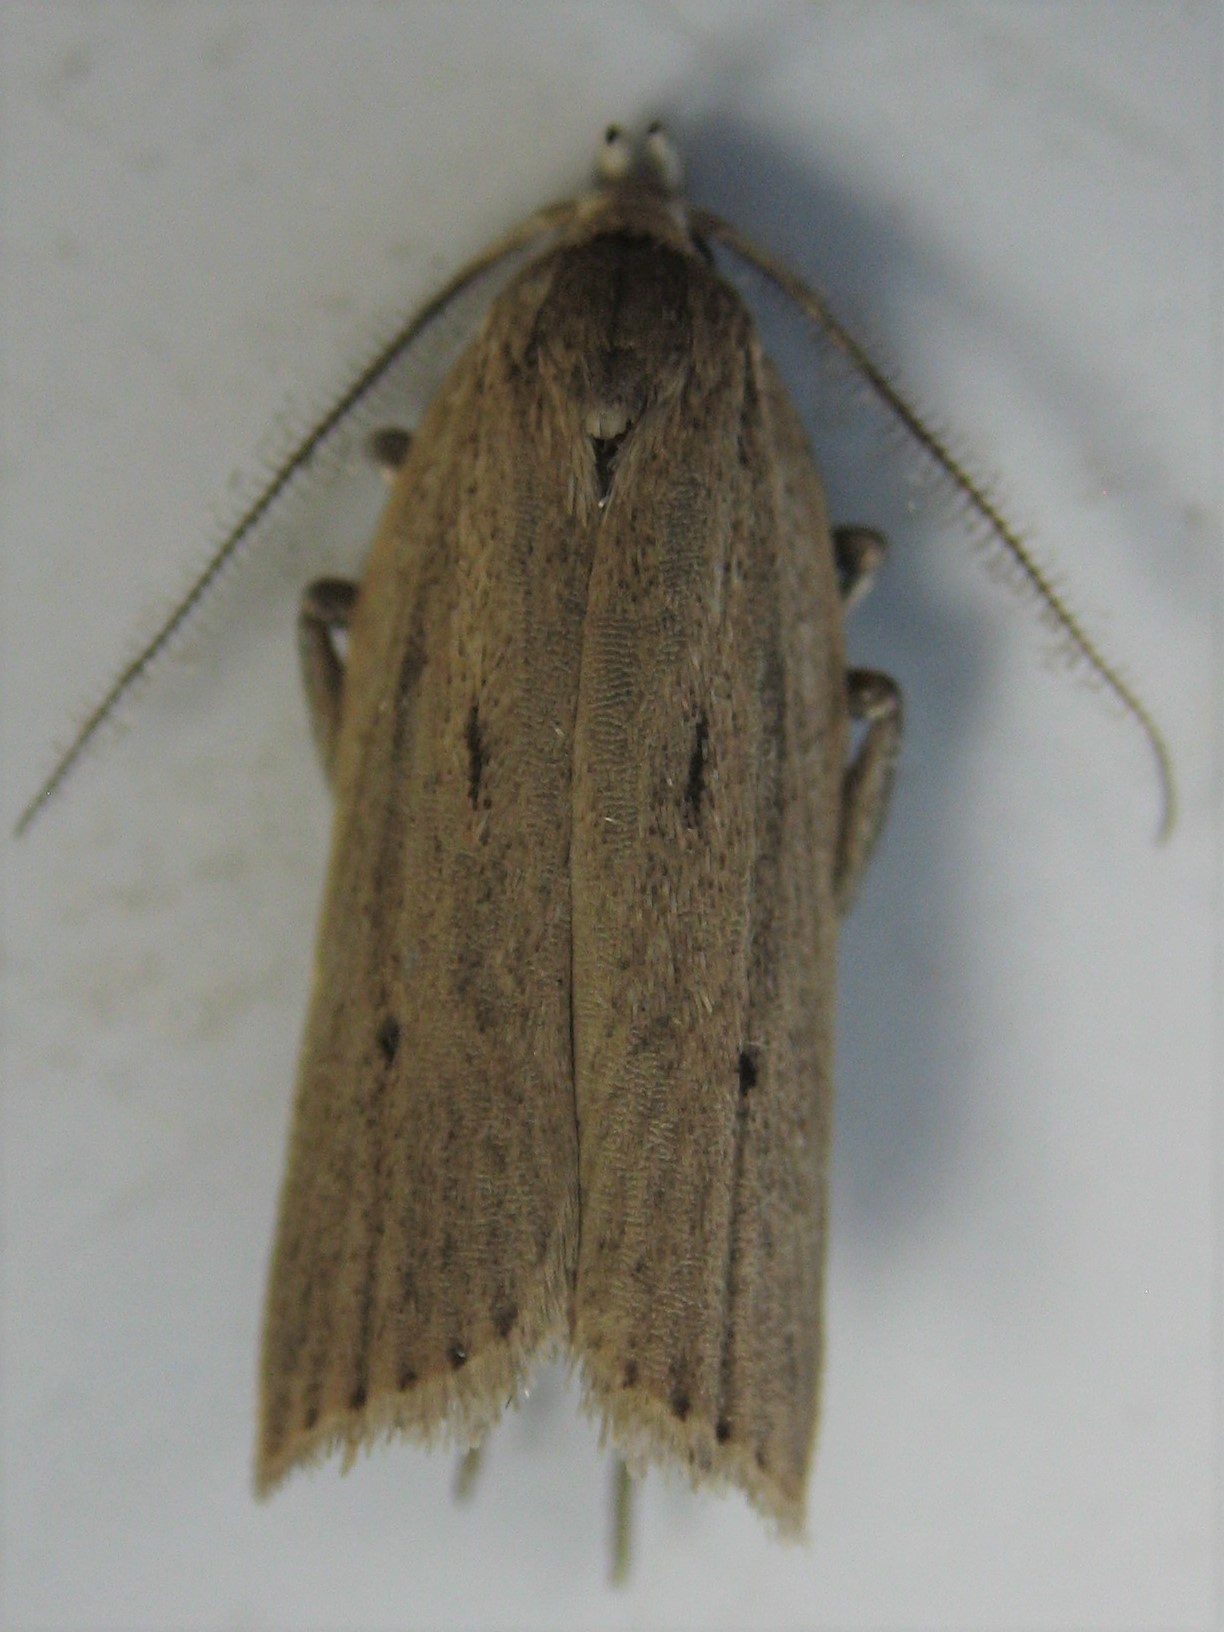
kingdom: Animalia
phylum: Arthropoda
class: Insecta
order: Lepidoptera
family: Depressariidae
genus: Gonioterma
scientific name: Gonioterma mistrella
